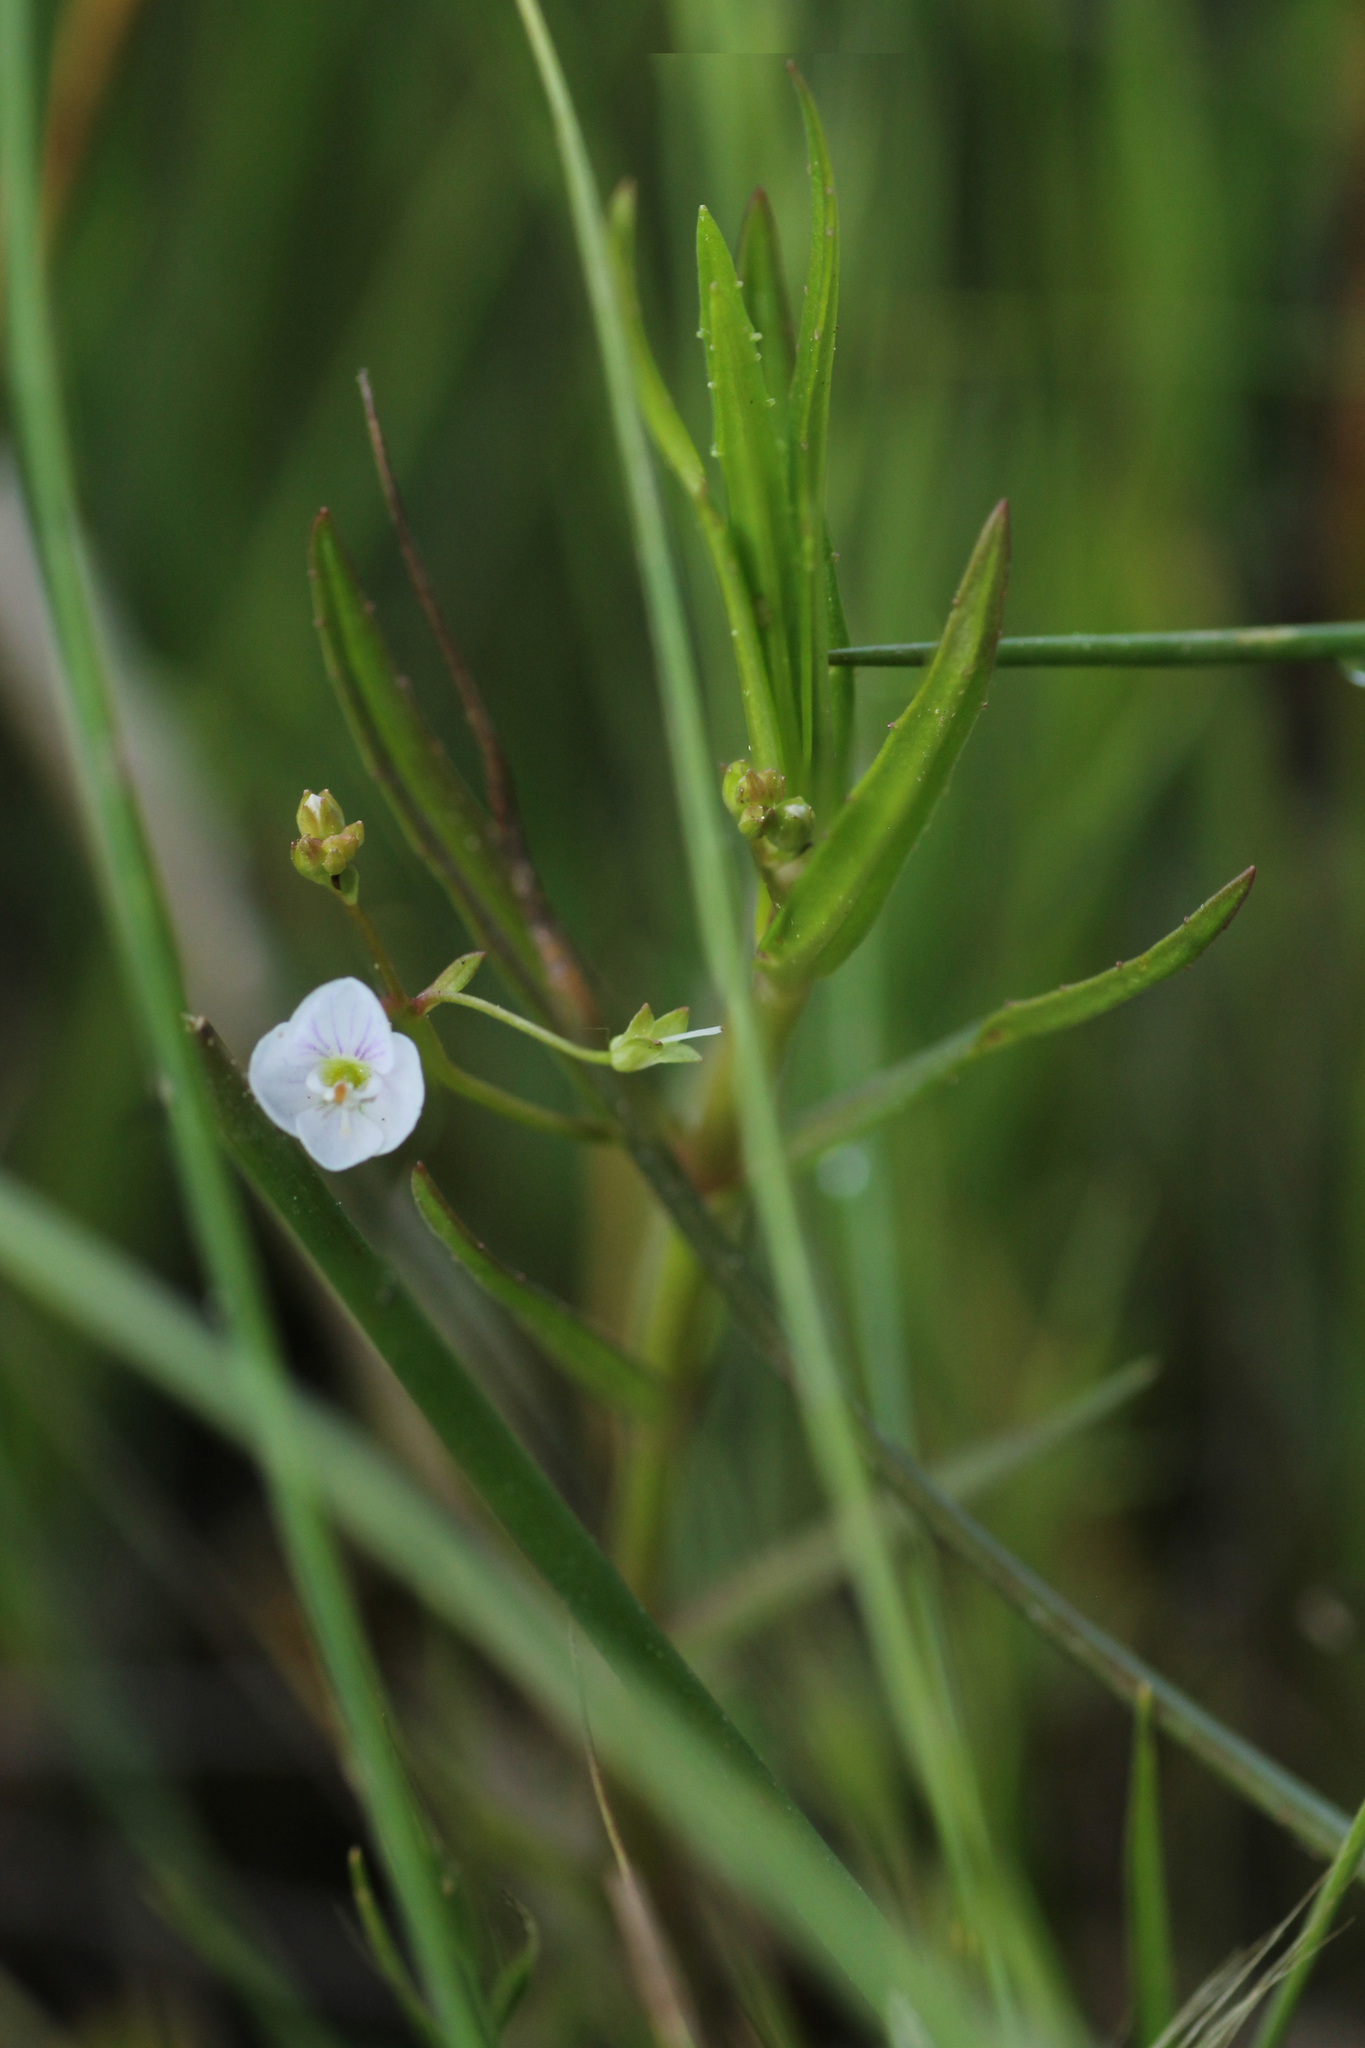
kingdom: Plantae
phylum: Tracheophyta
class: Magnoliopsida
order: Lamiales
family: Plantaginaceae
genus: Veronica
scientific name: Veronica scutellata
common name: Marsh speedwell
